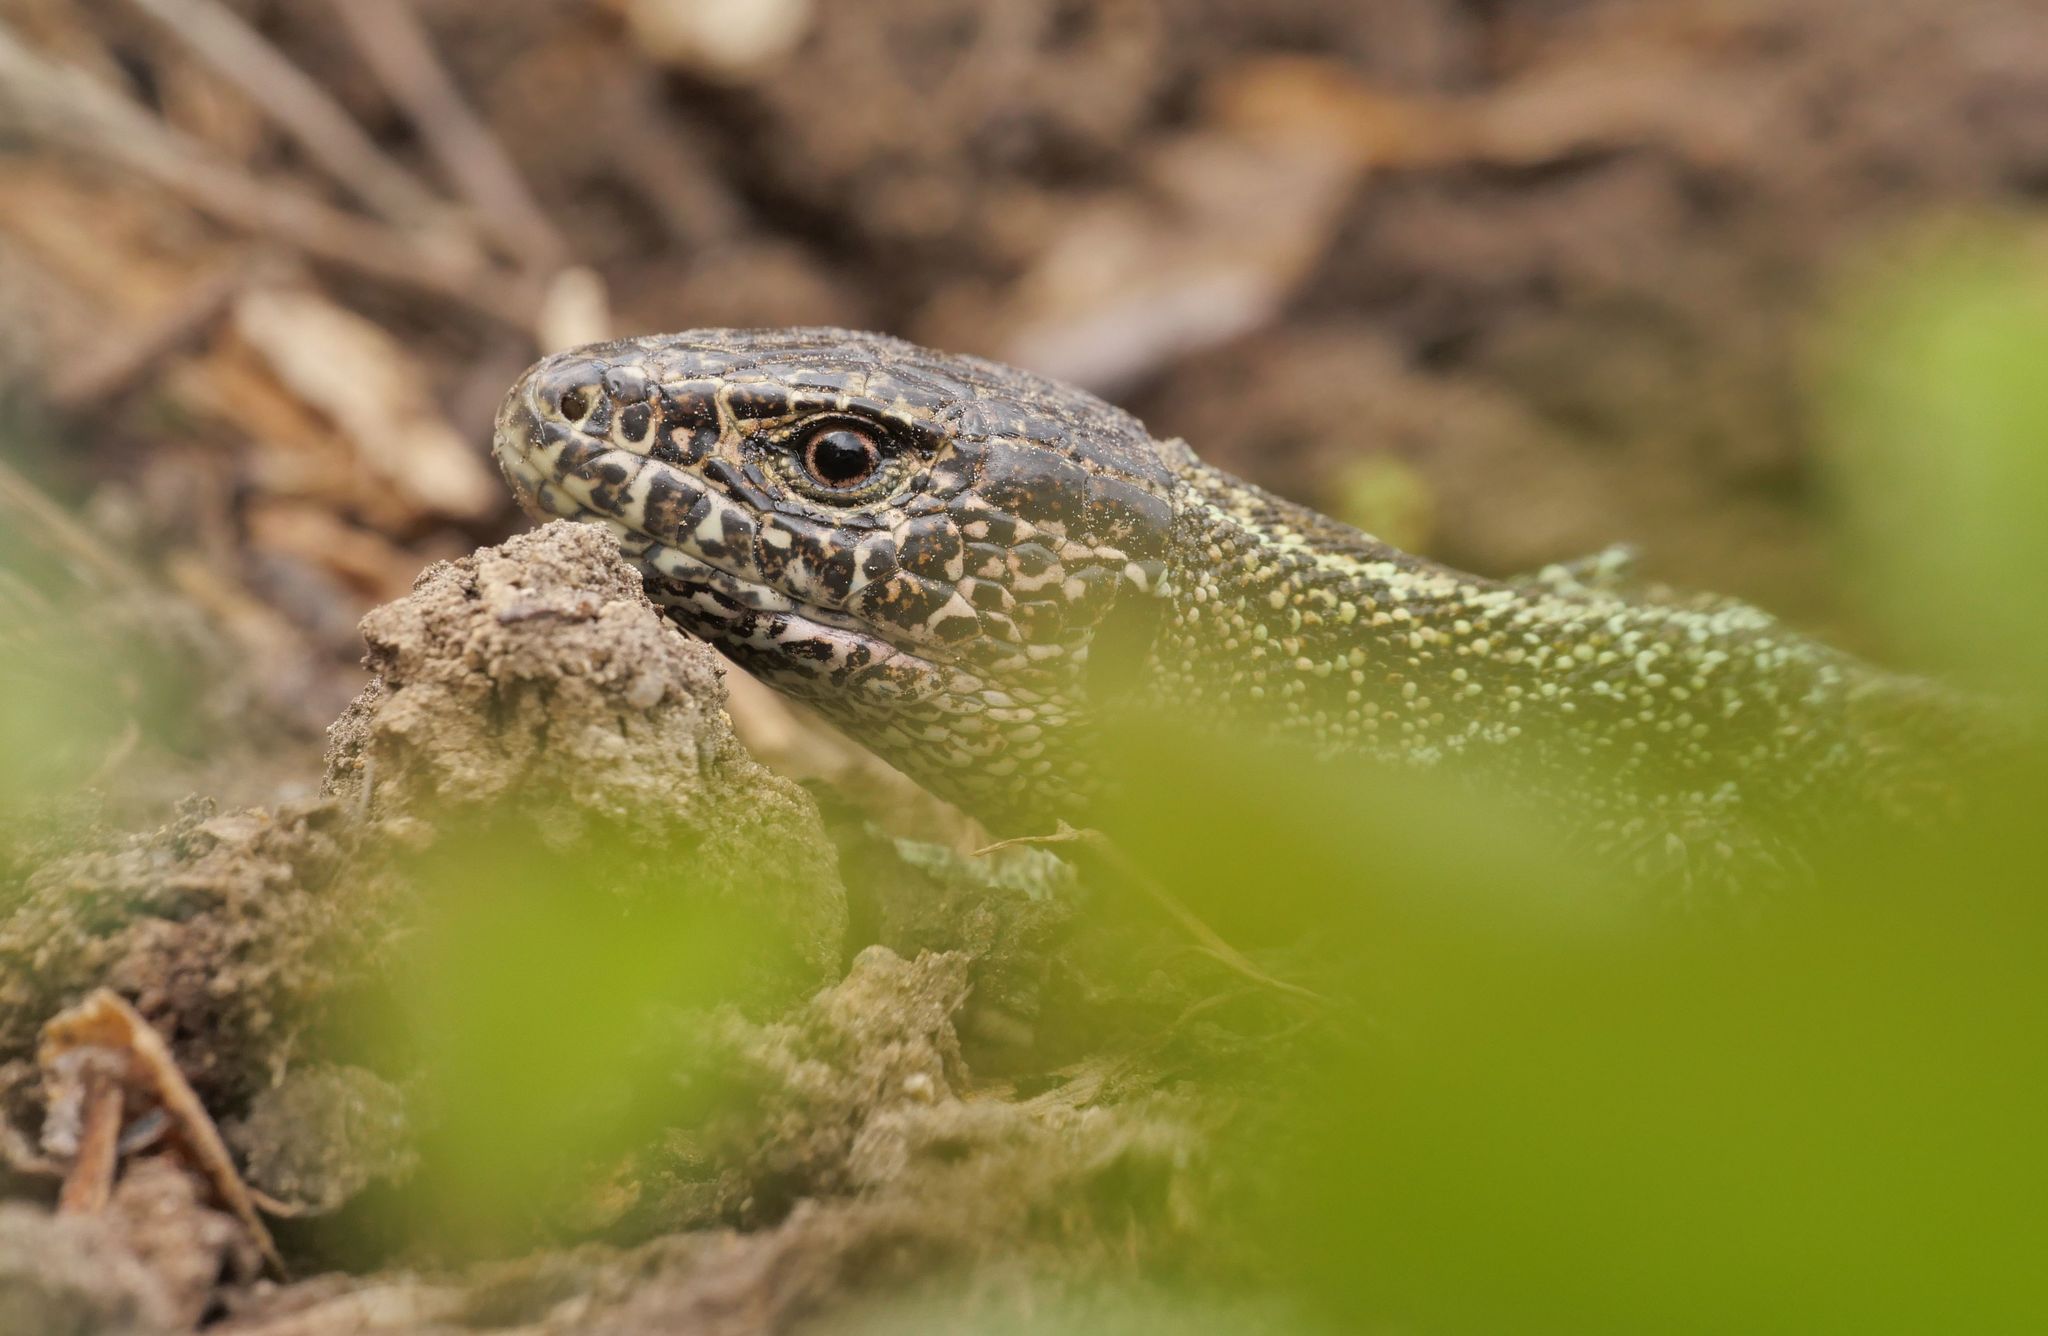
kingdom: Animalia
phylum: Chordata
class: Squamata
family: Lacertidae
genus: Lacerta
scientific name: Lacerta agilis
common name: Sand lizard
